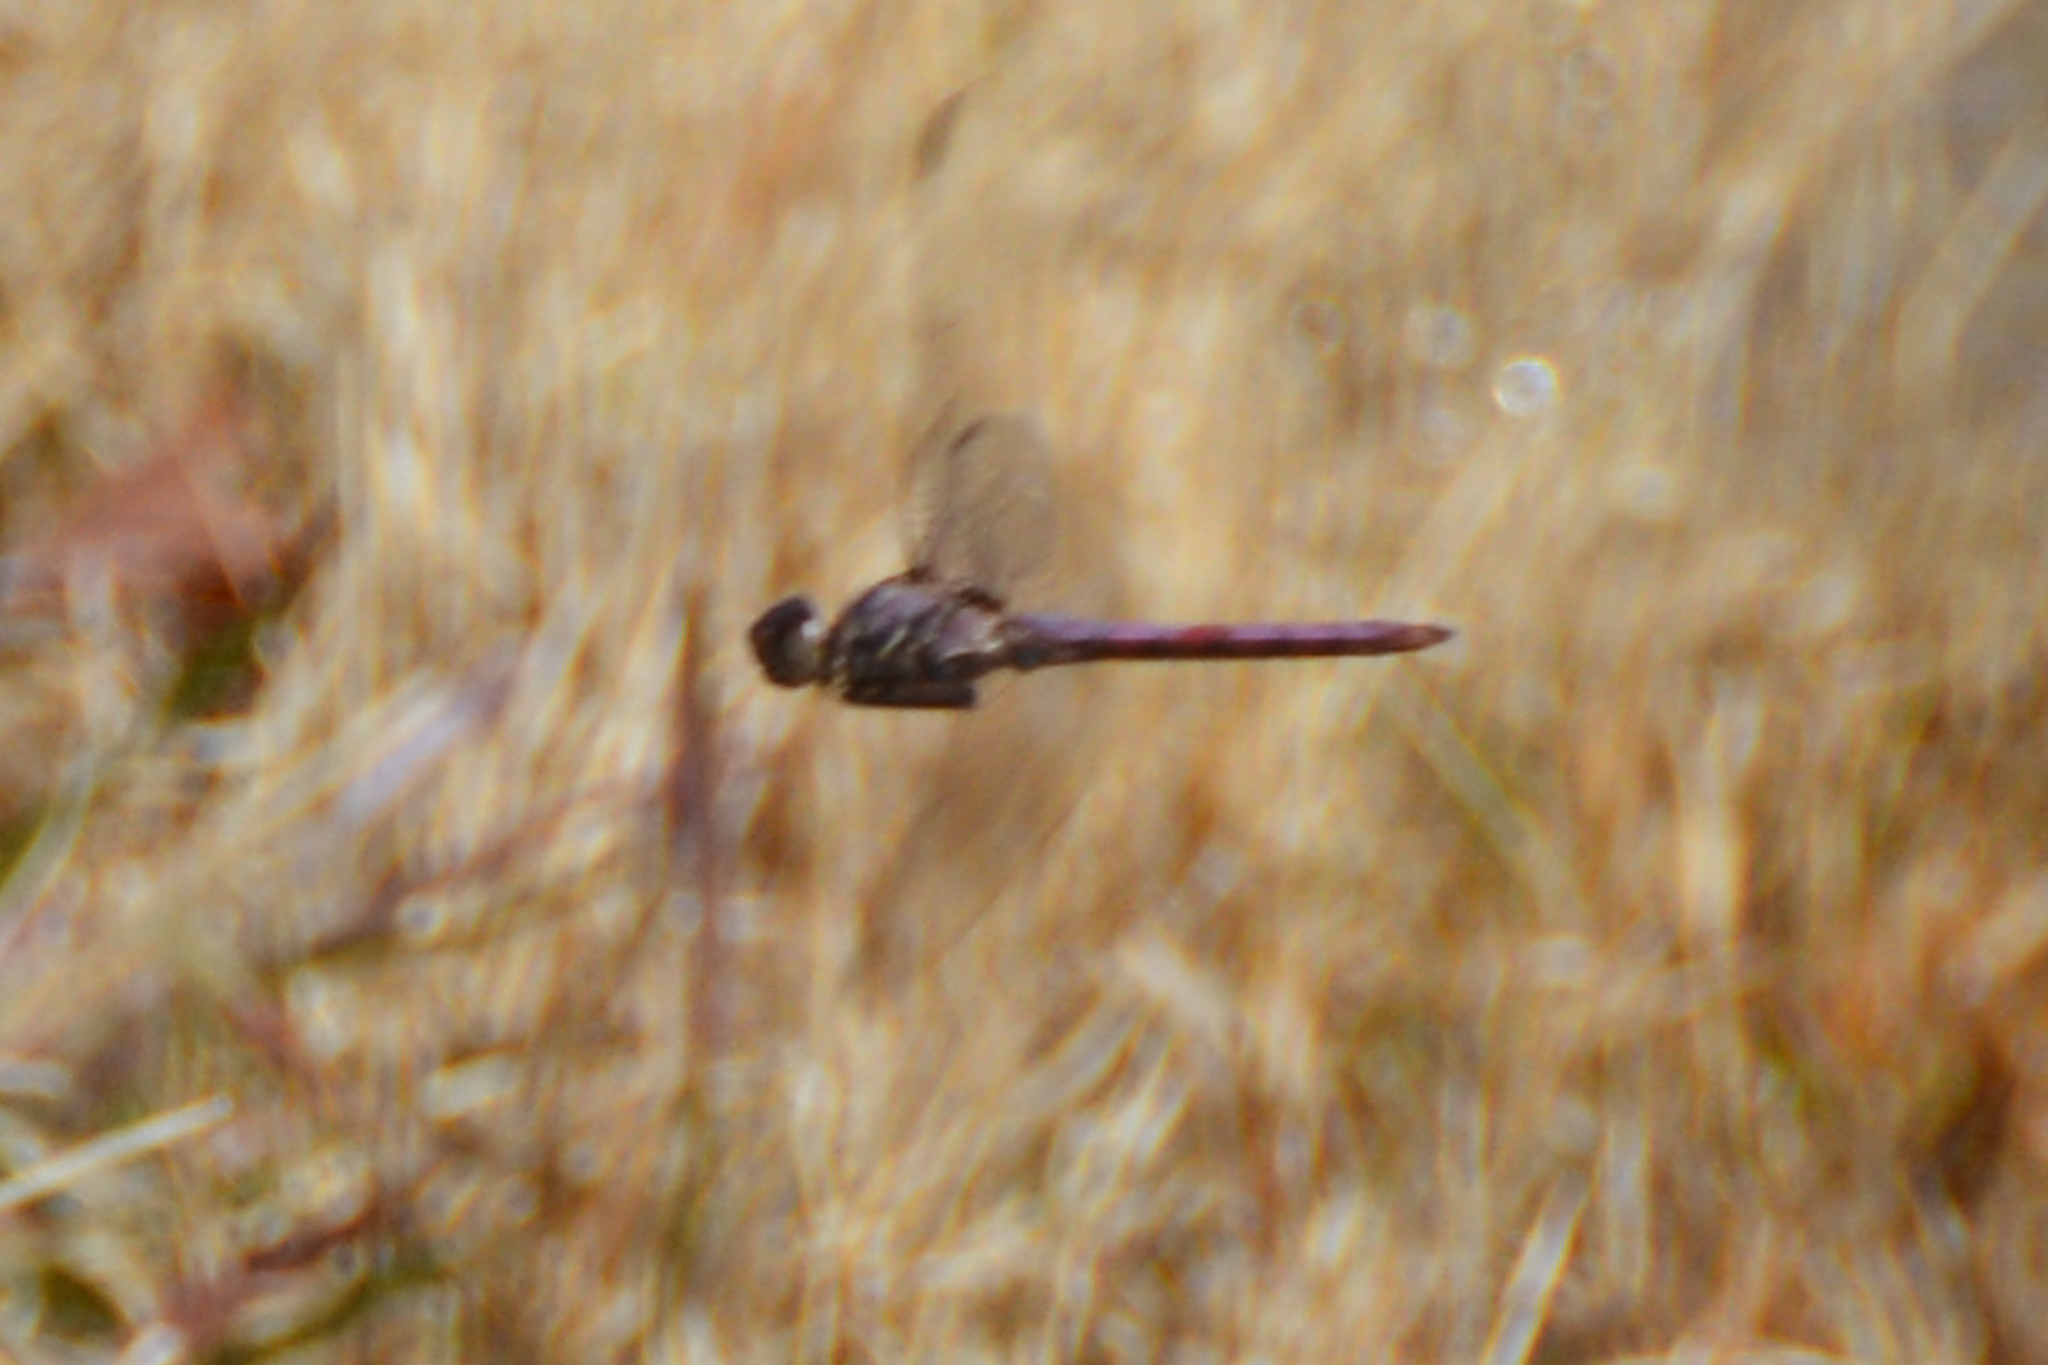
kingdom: Animalia
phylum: Arthropoda
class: Insecta
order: Odonata
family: Libellulidae
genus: Orthemis
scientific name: Orthemis ferruginea
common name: Roseate skimmer
